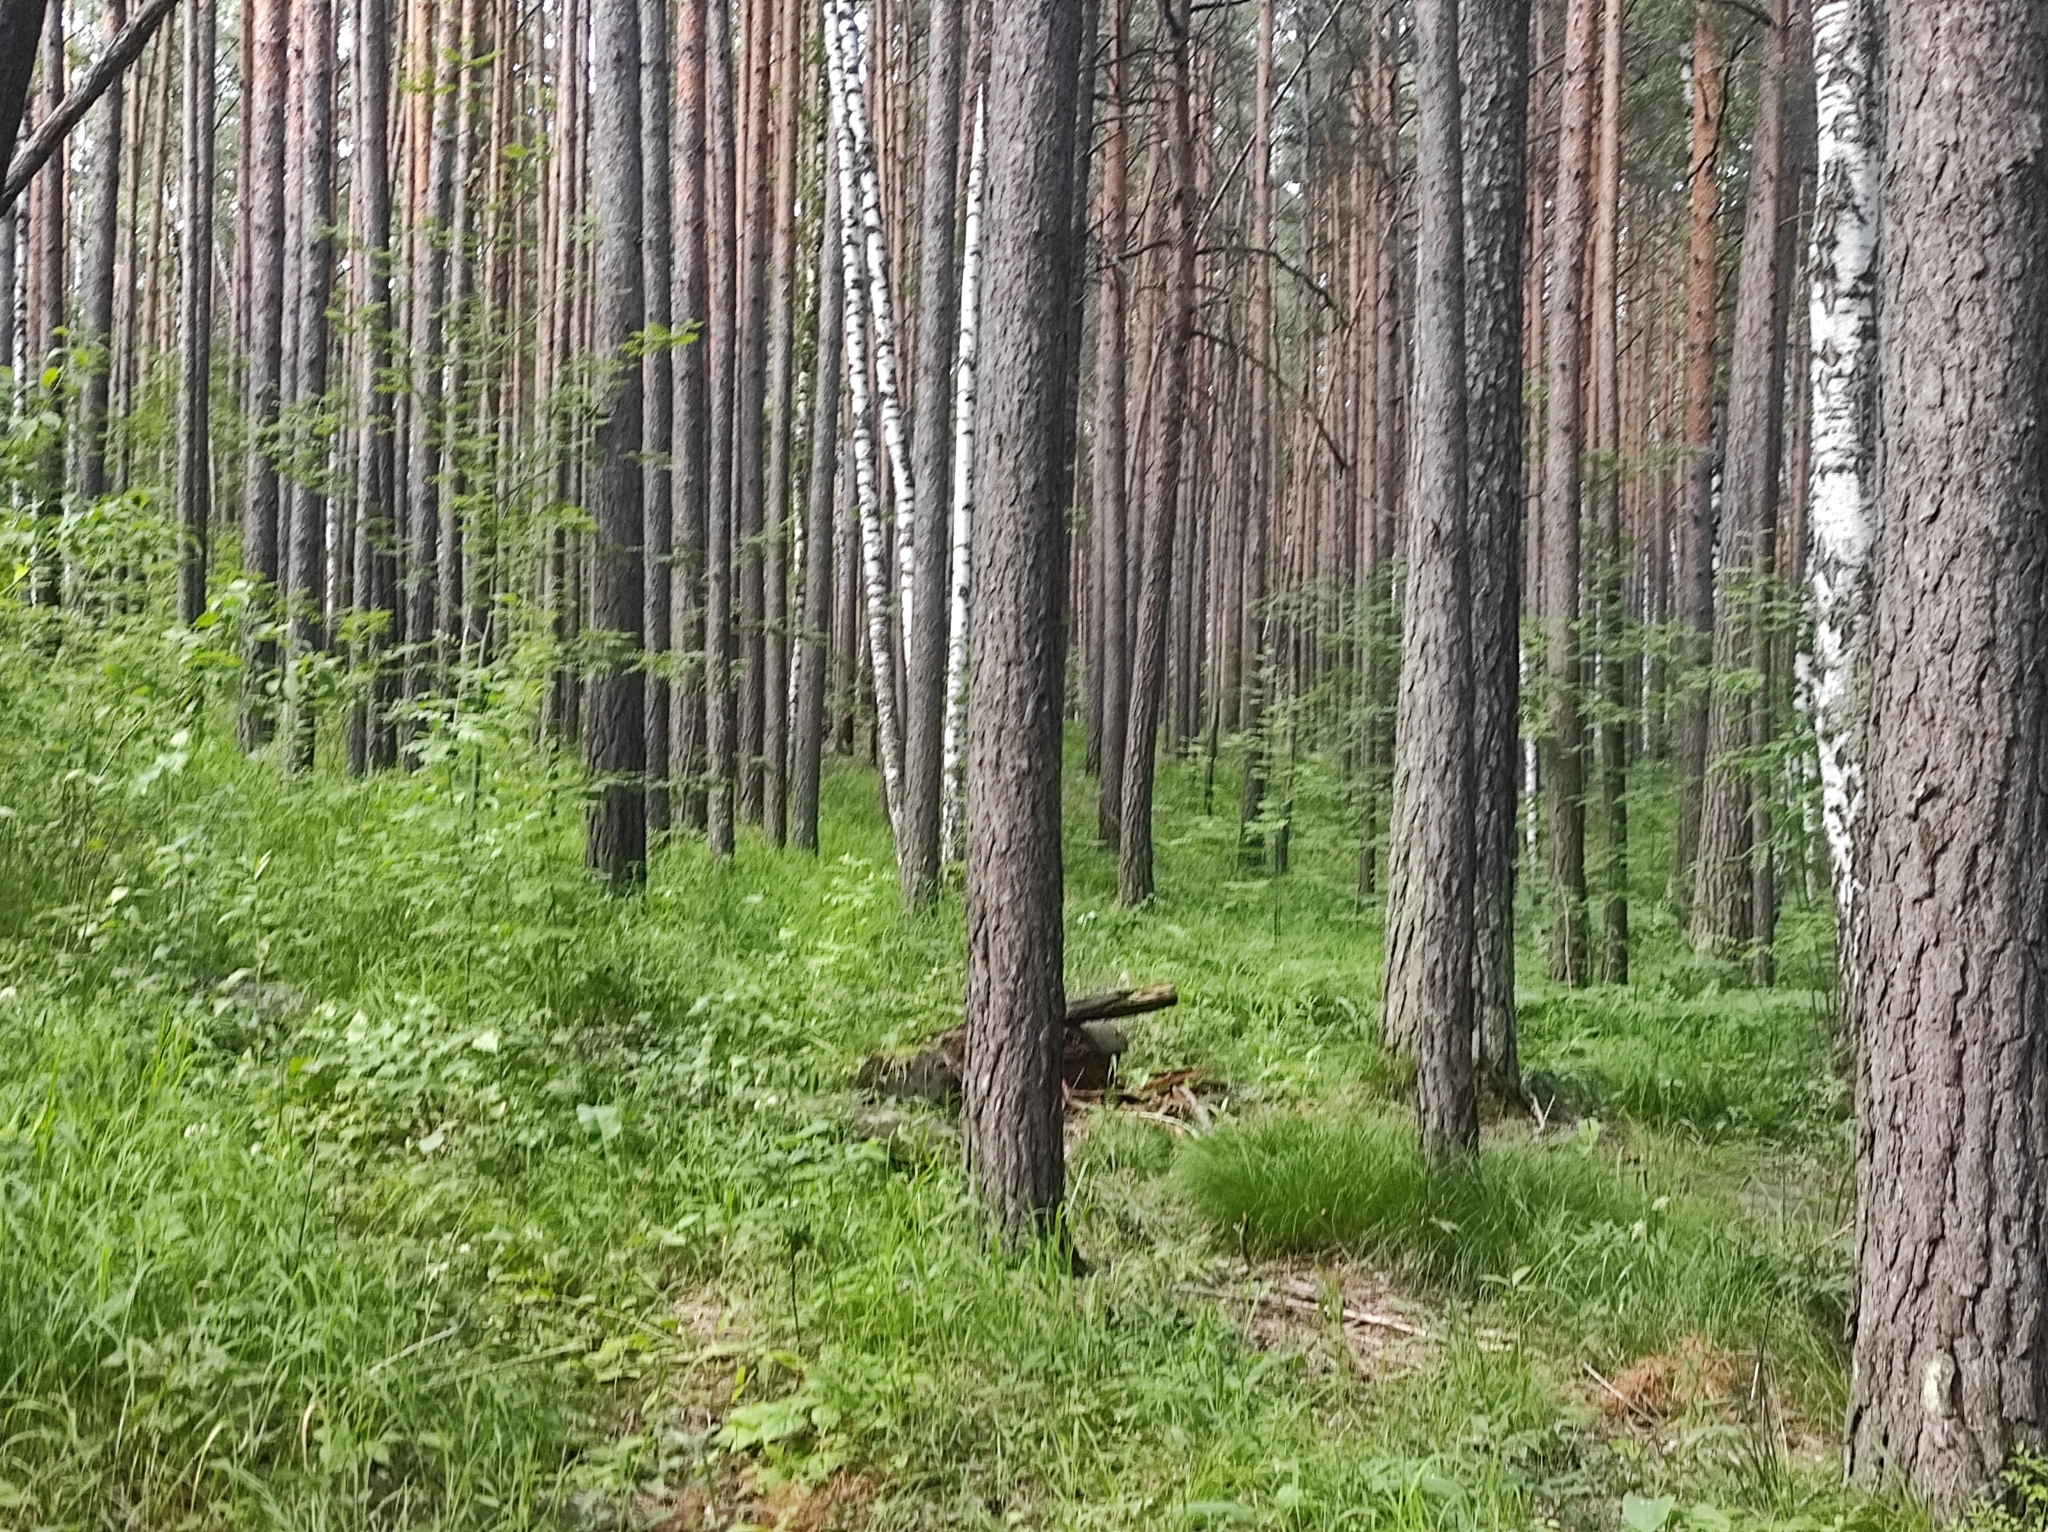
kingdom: Plantae
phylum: Tracheophyta
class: Pinopsida
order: Pinales
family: Pinaceae
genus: Pinus
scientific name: Pinus sylvestris
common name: Scots pine
